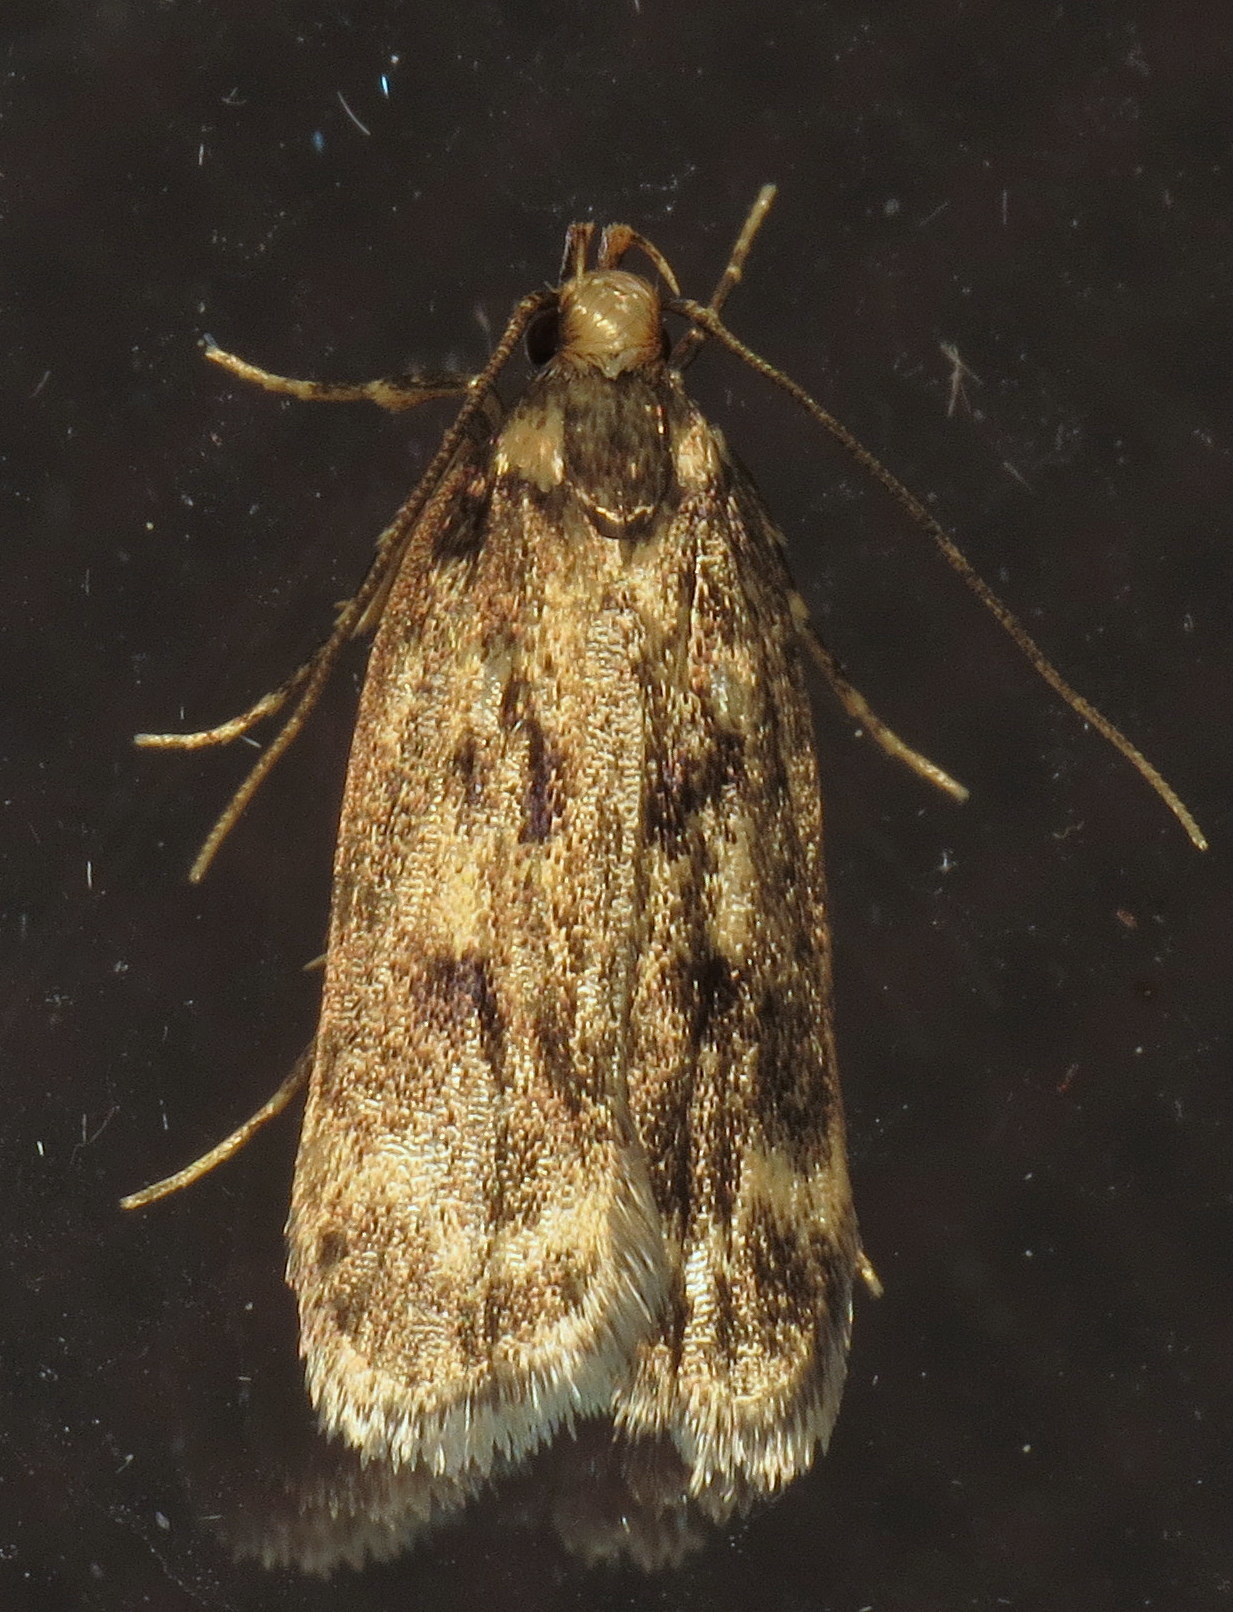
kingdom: Animalia
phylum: Arthropoda
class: Insecta
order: Lepidoptera
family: Lecithoceridae
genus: Martyringa
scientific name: Martyringa latipennis
